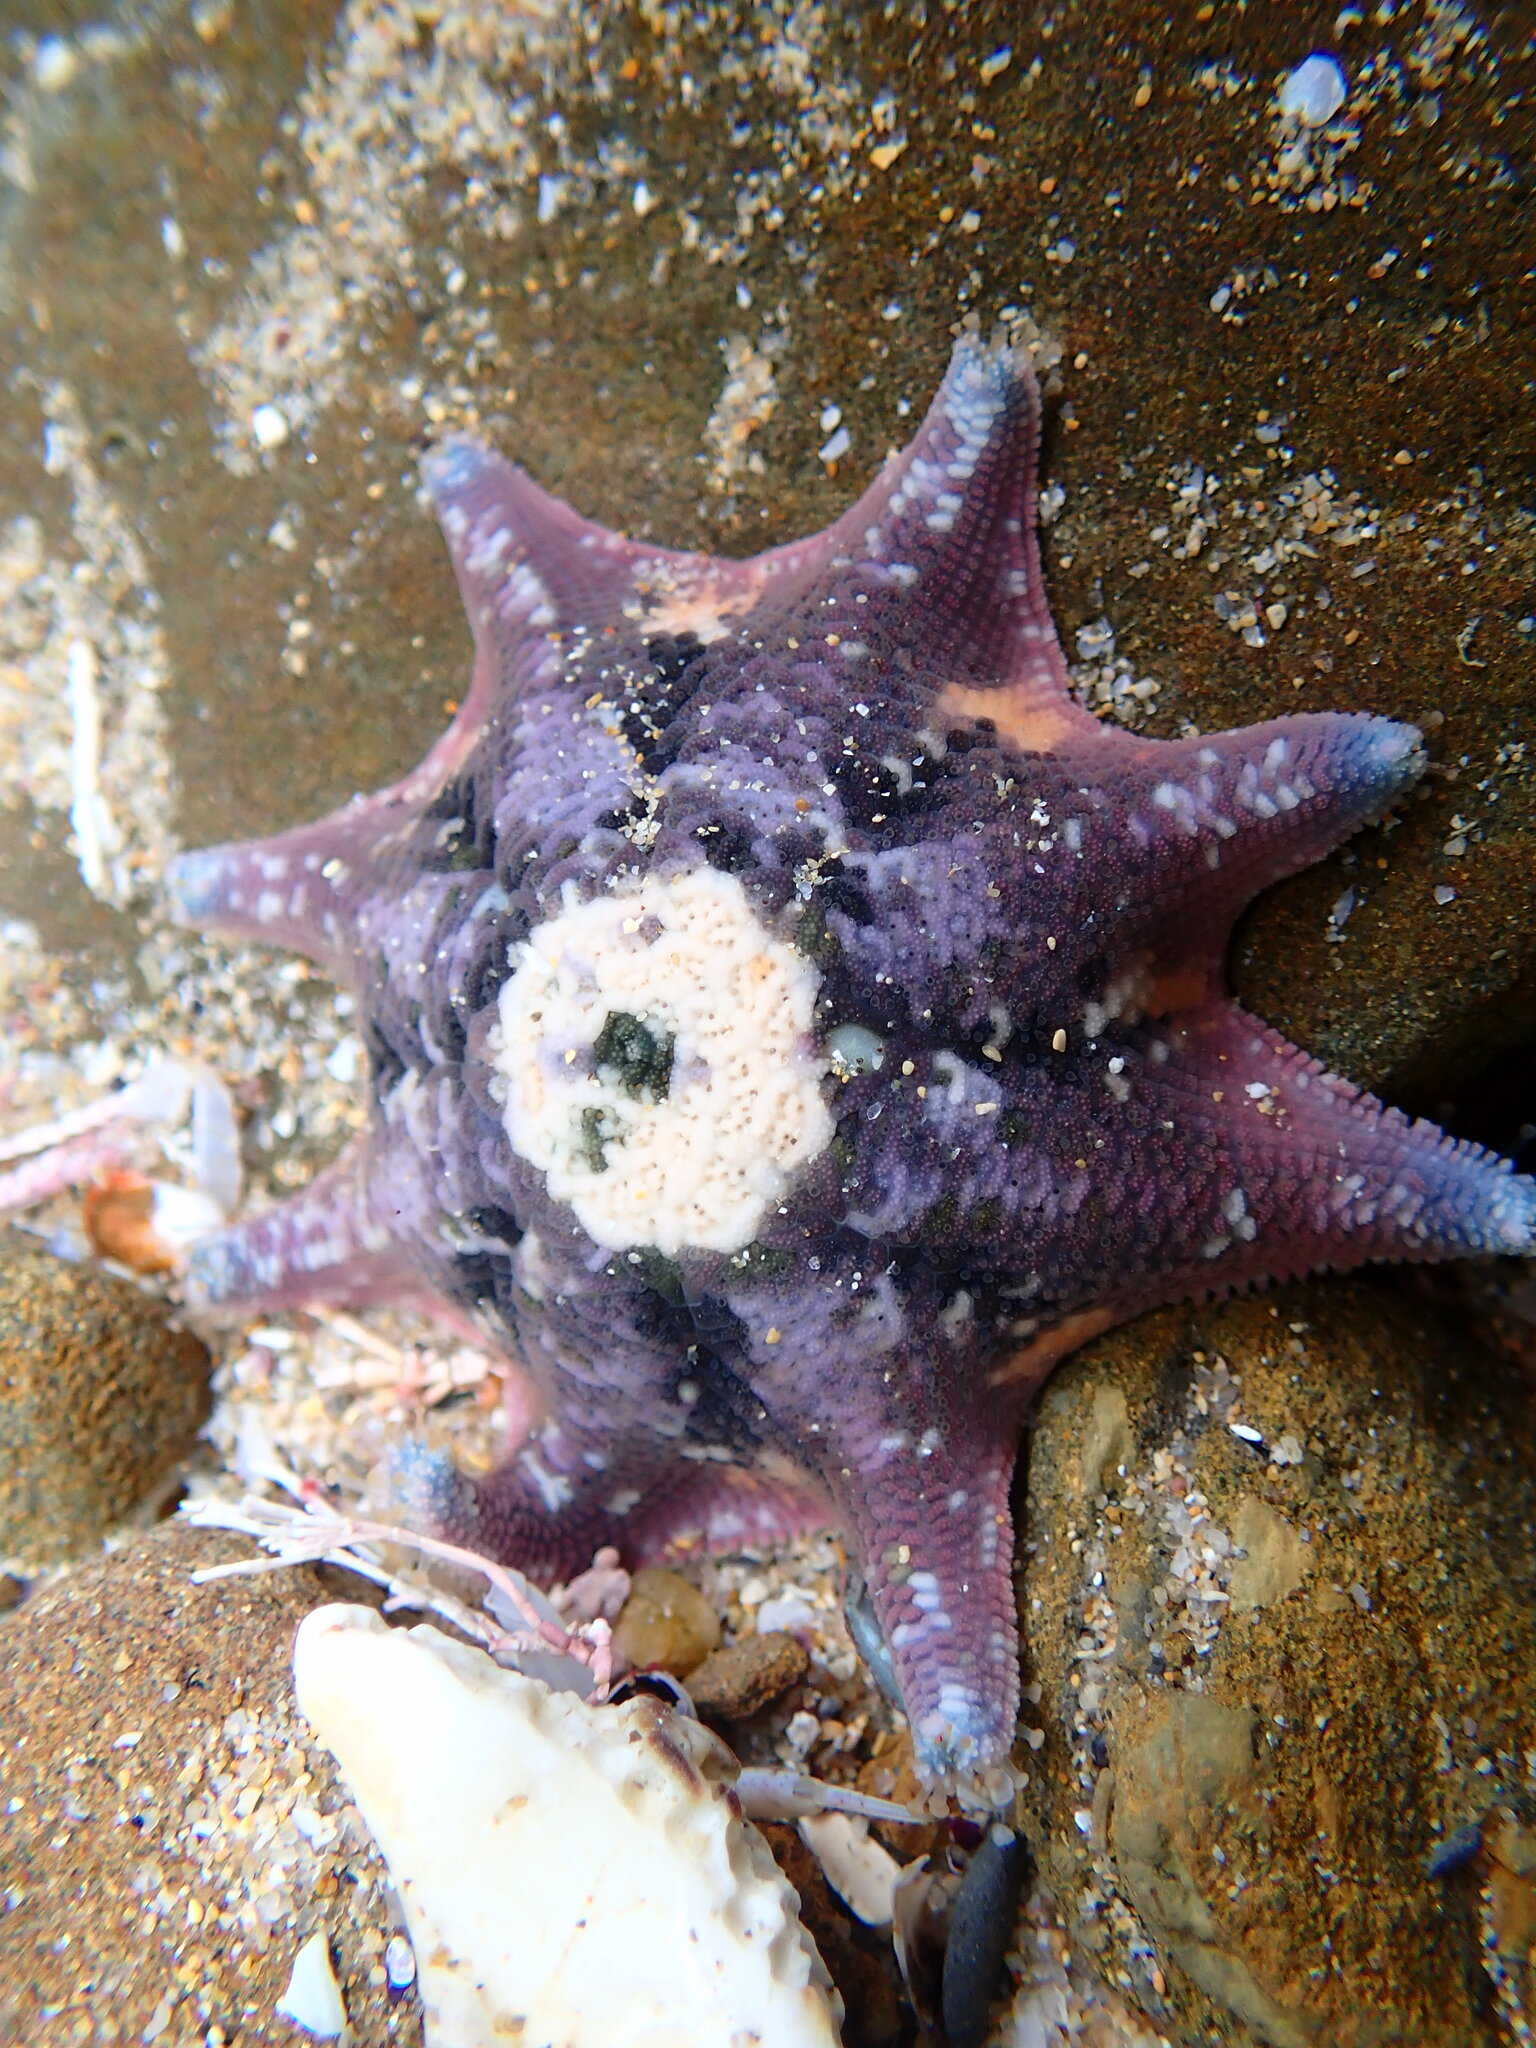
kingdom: Animalia
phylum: Echinodermata
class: Asteroidea
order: Valvatida
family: Asterinidae
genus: Meridiastra
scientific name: Meridiastra calcar
